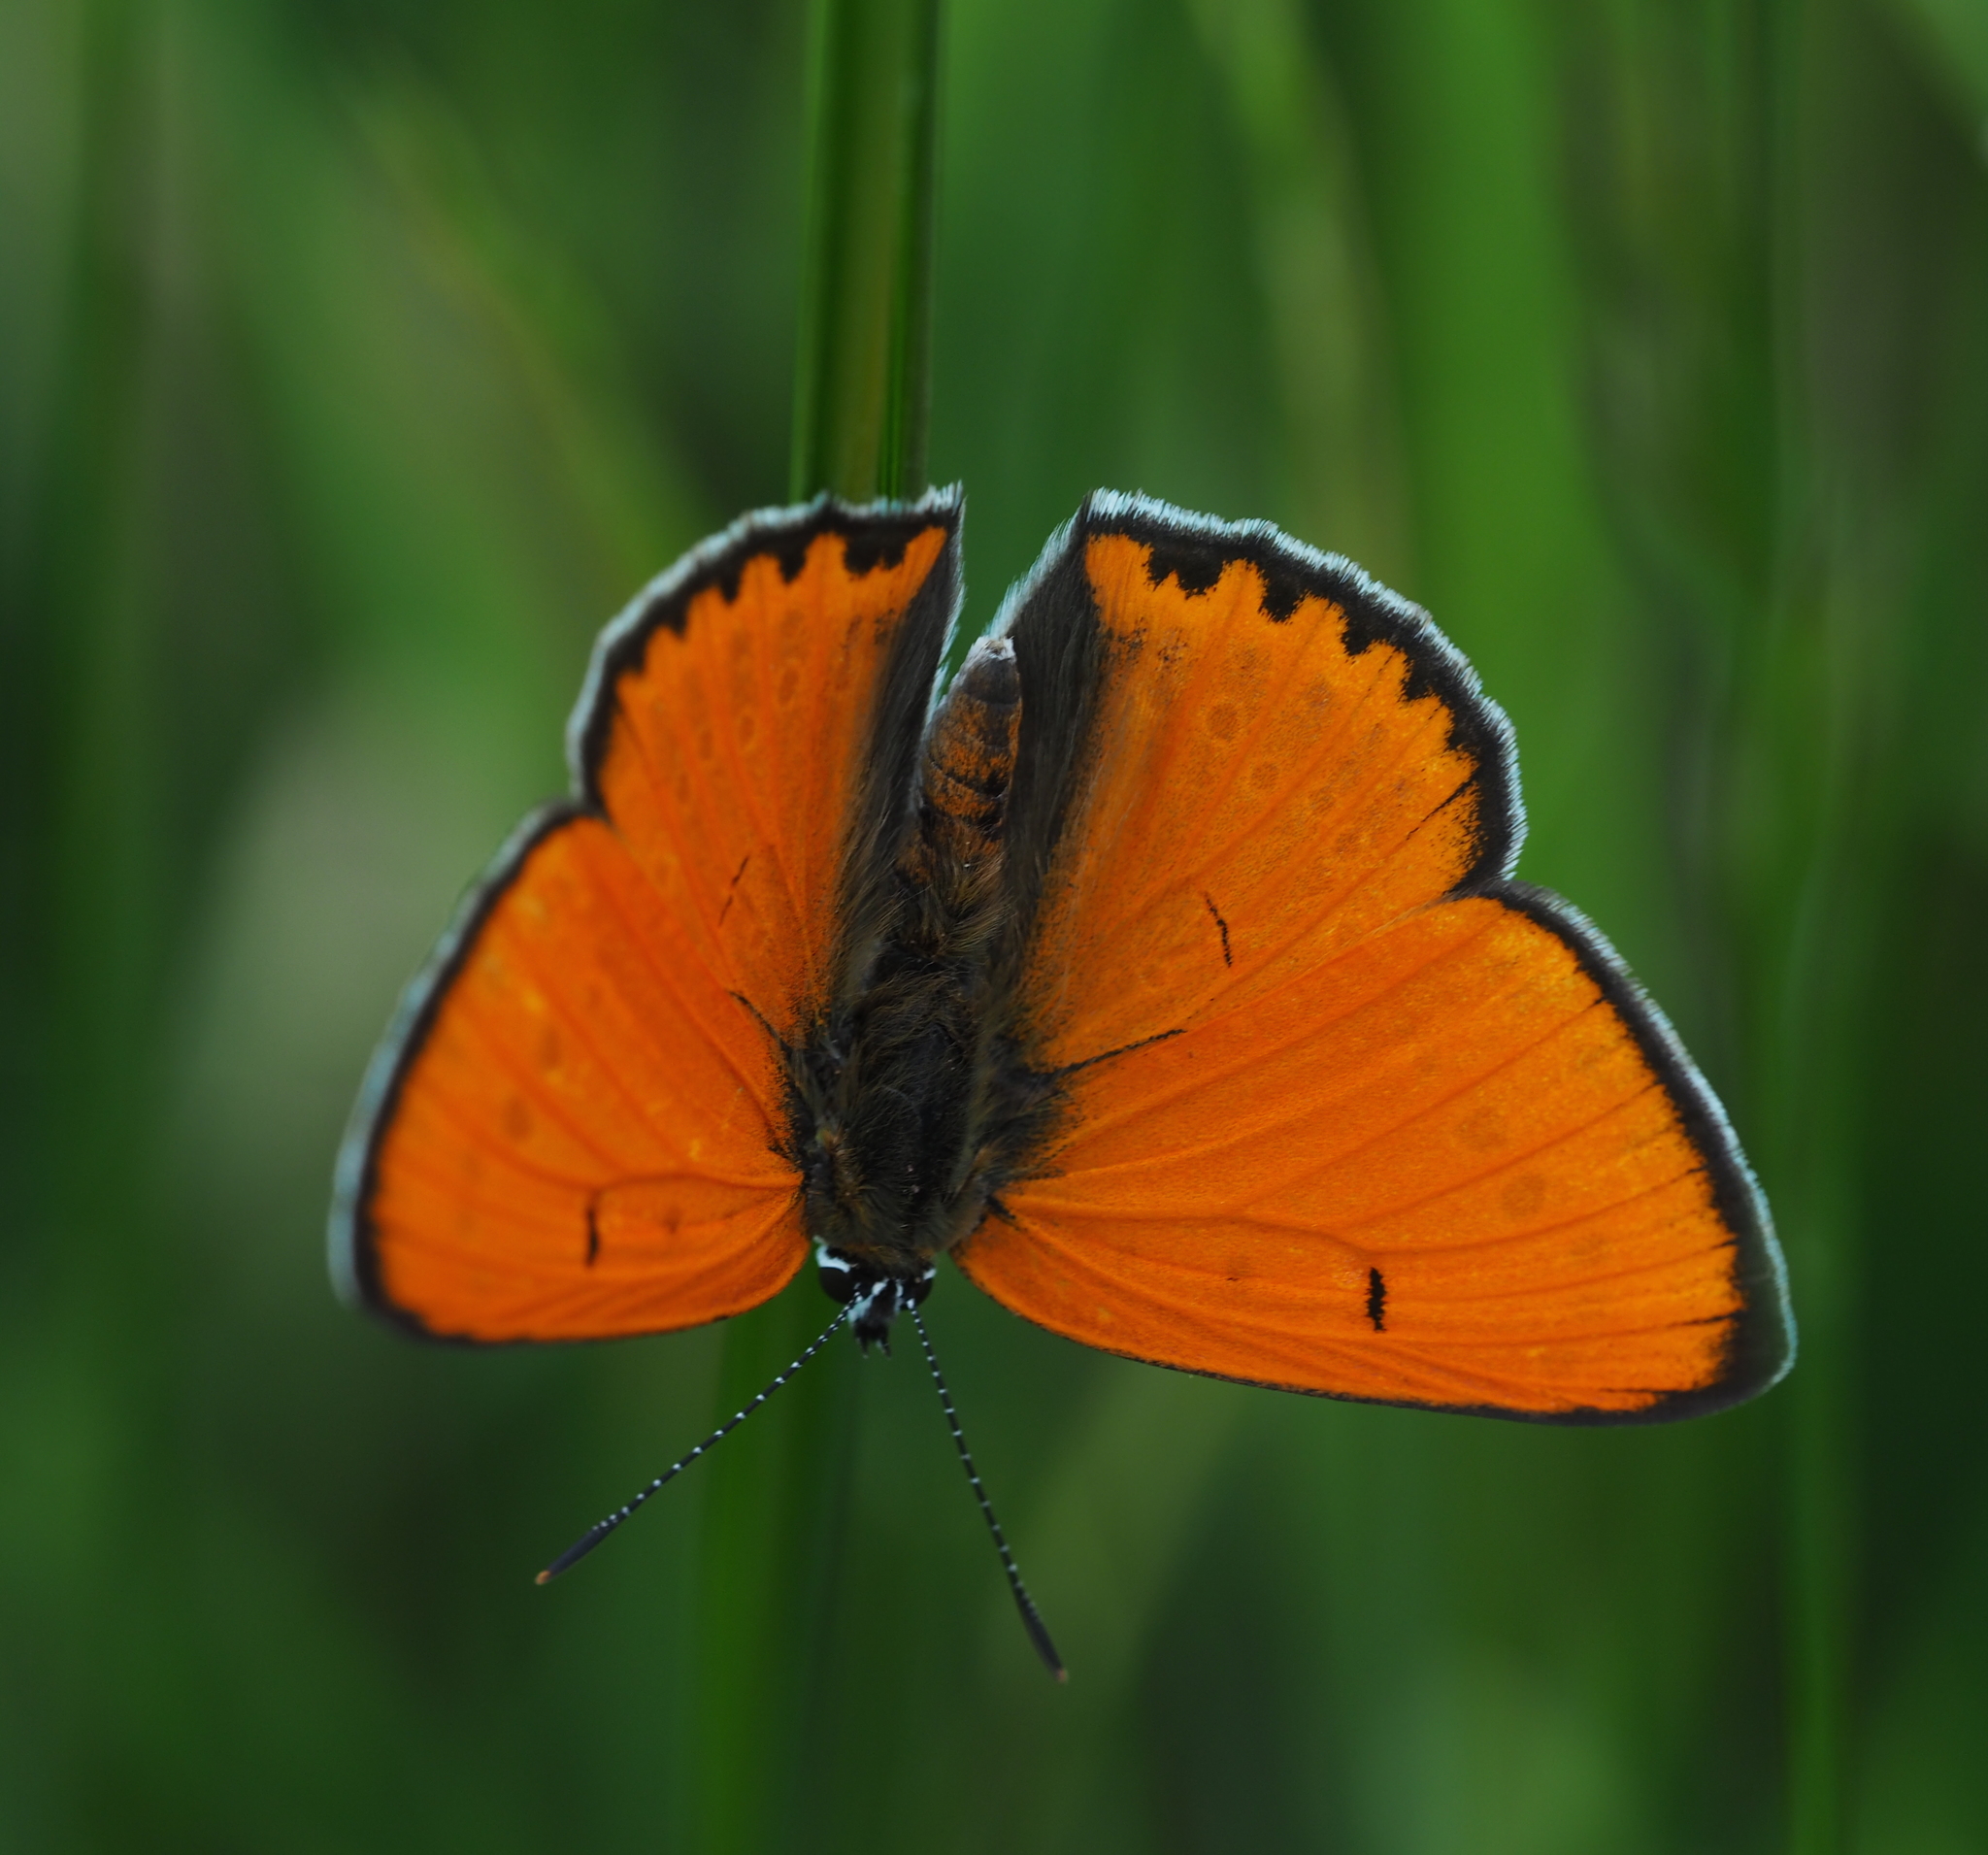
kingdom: Animalia
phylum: Arthropoda
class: Insecta
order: Lepidoptera
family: Lycaenidae
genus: Lycaena
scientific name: Lycaena dispar
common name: Large copper
